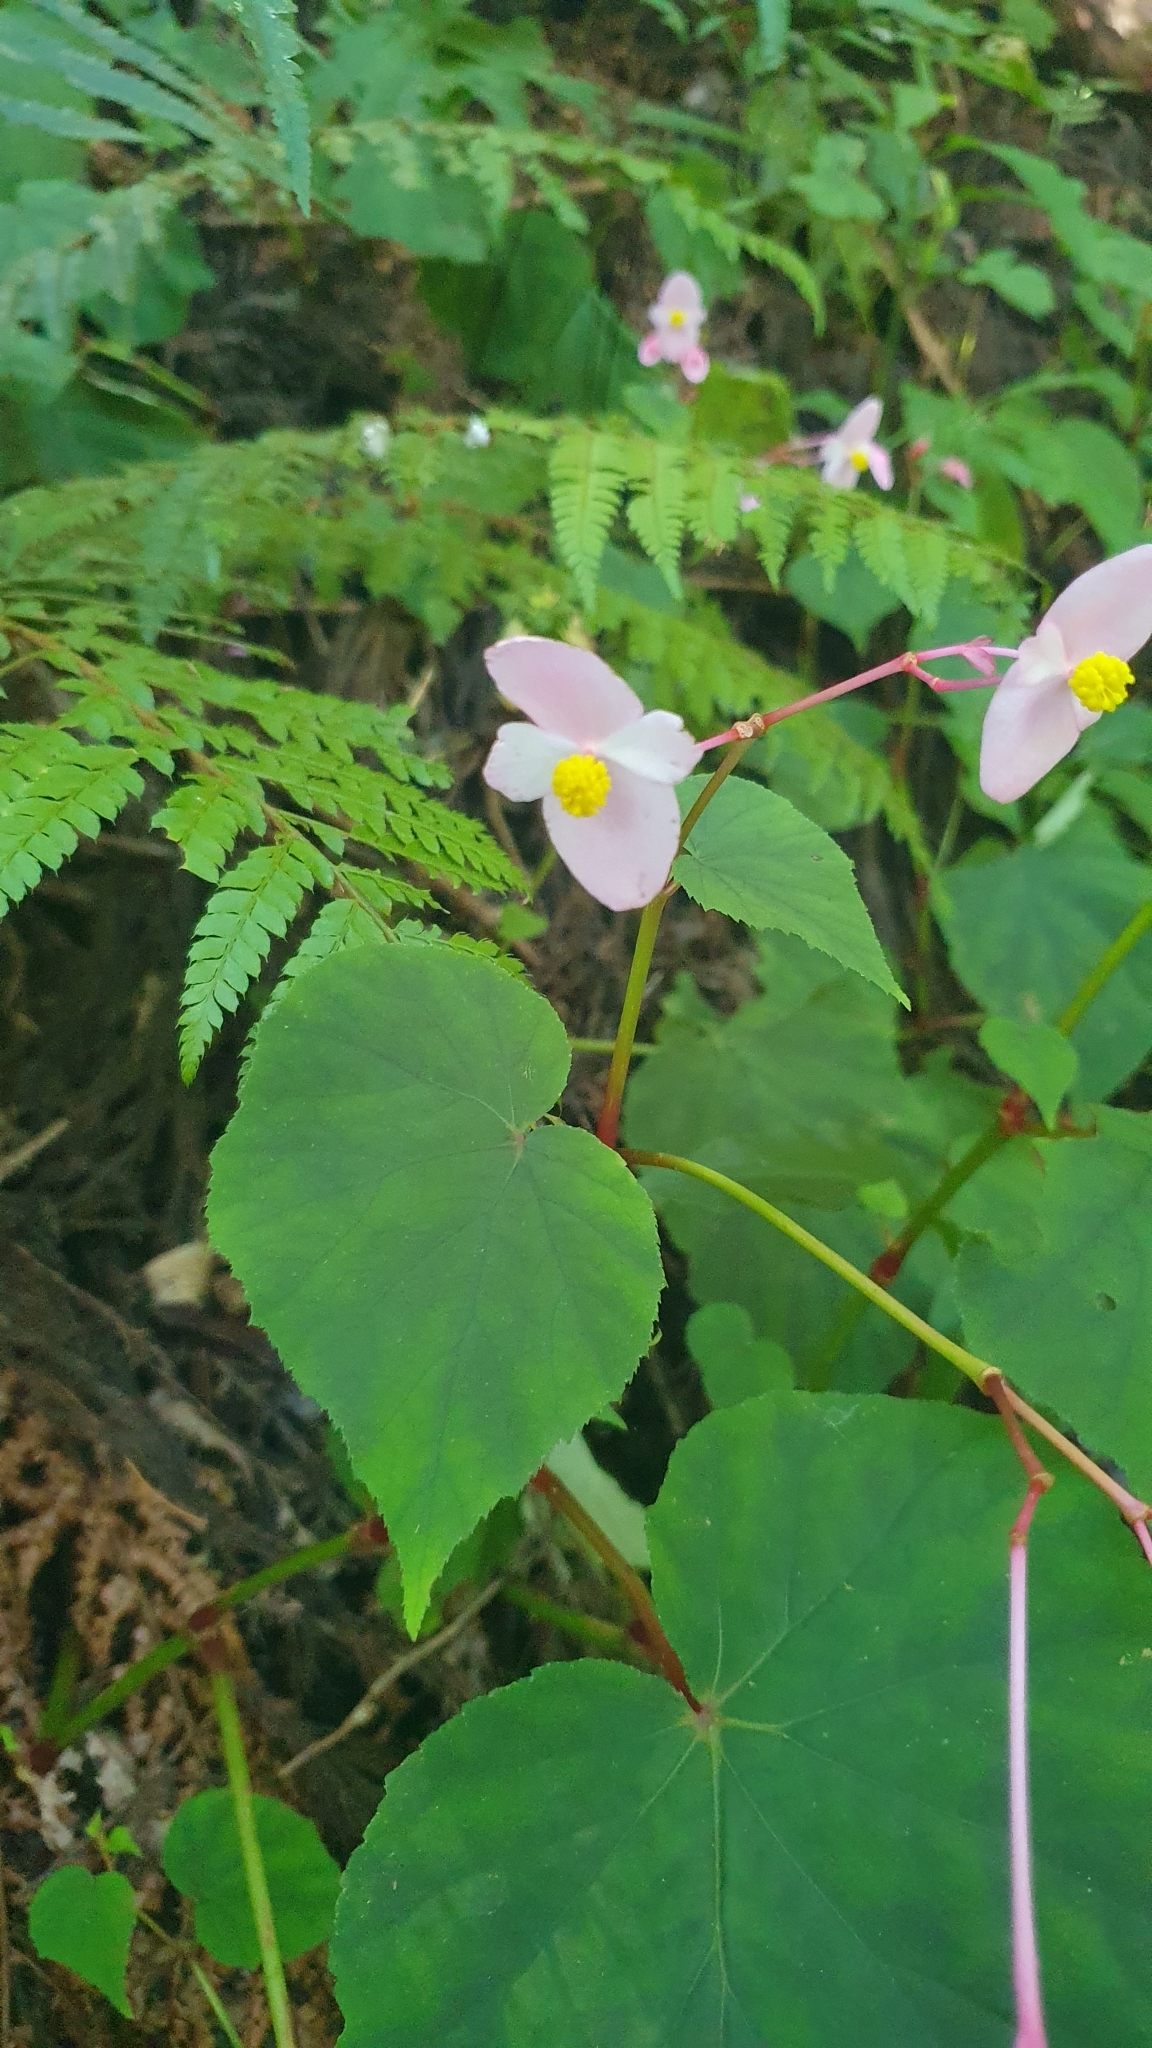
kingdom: Plantae
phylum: Tracheophyta
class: Magnoliopsida
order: Cucurbitales
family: Begoniaceae
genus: Begonia
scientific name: Begonia grandis
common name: Hardy begonia
